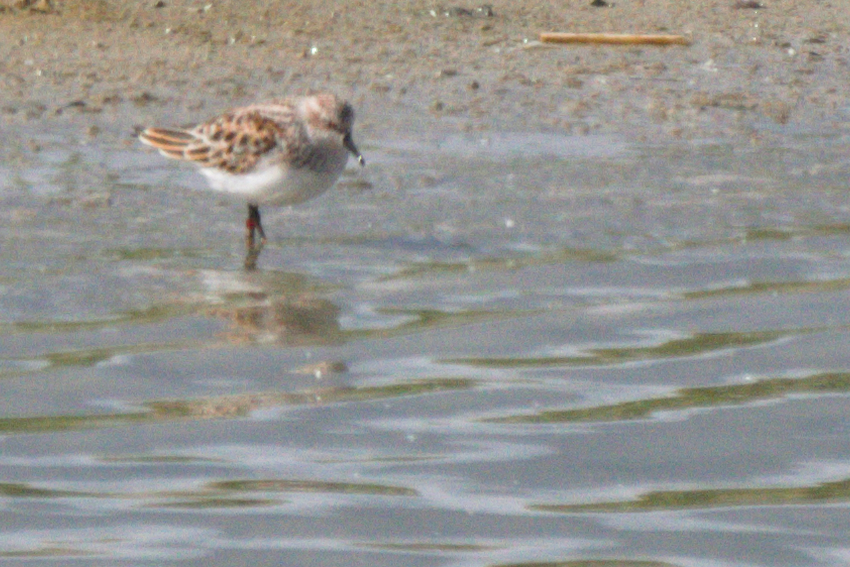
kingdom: Animalia
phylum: Chordata
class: Aves
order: Charadriiformes
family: Scolopacidae
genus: Calidris
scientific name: Calidris minuta
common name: Little stint
